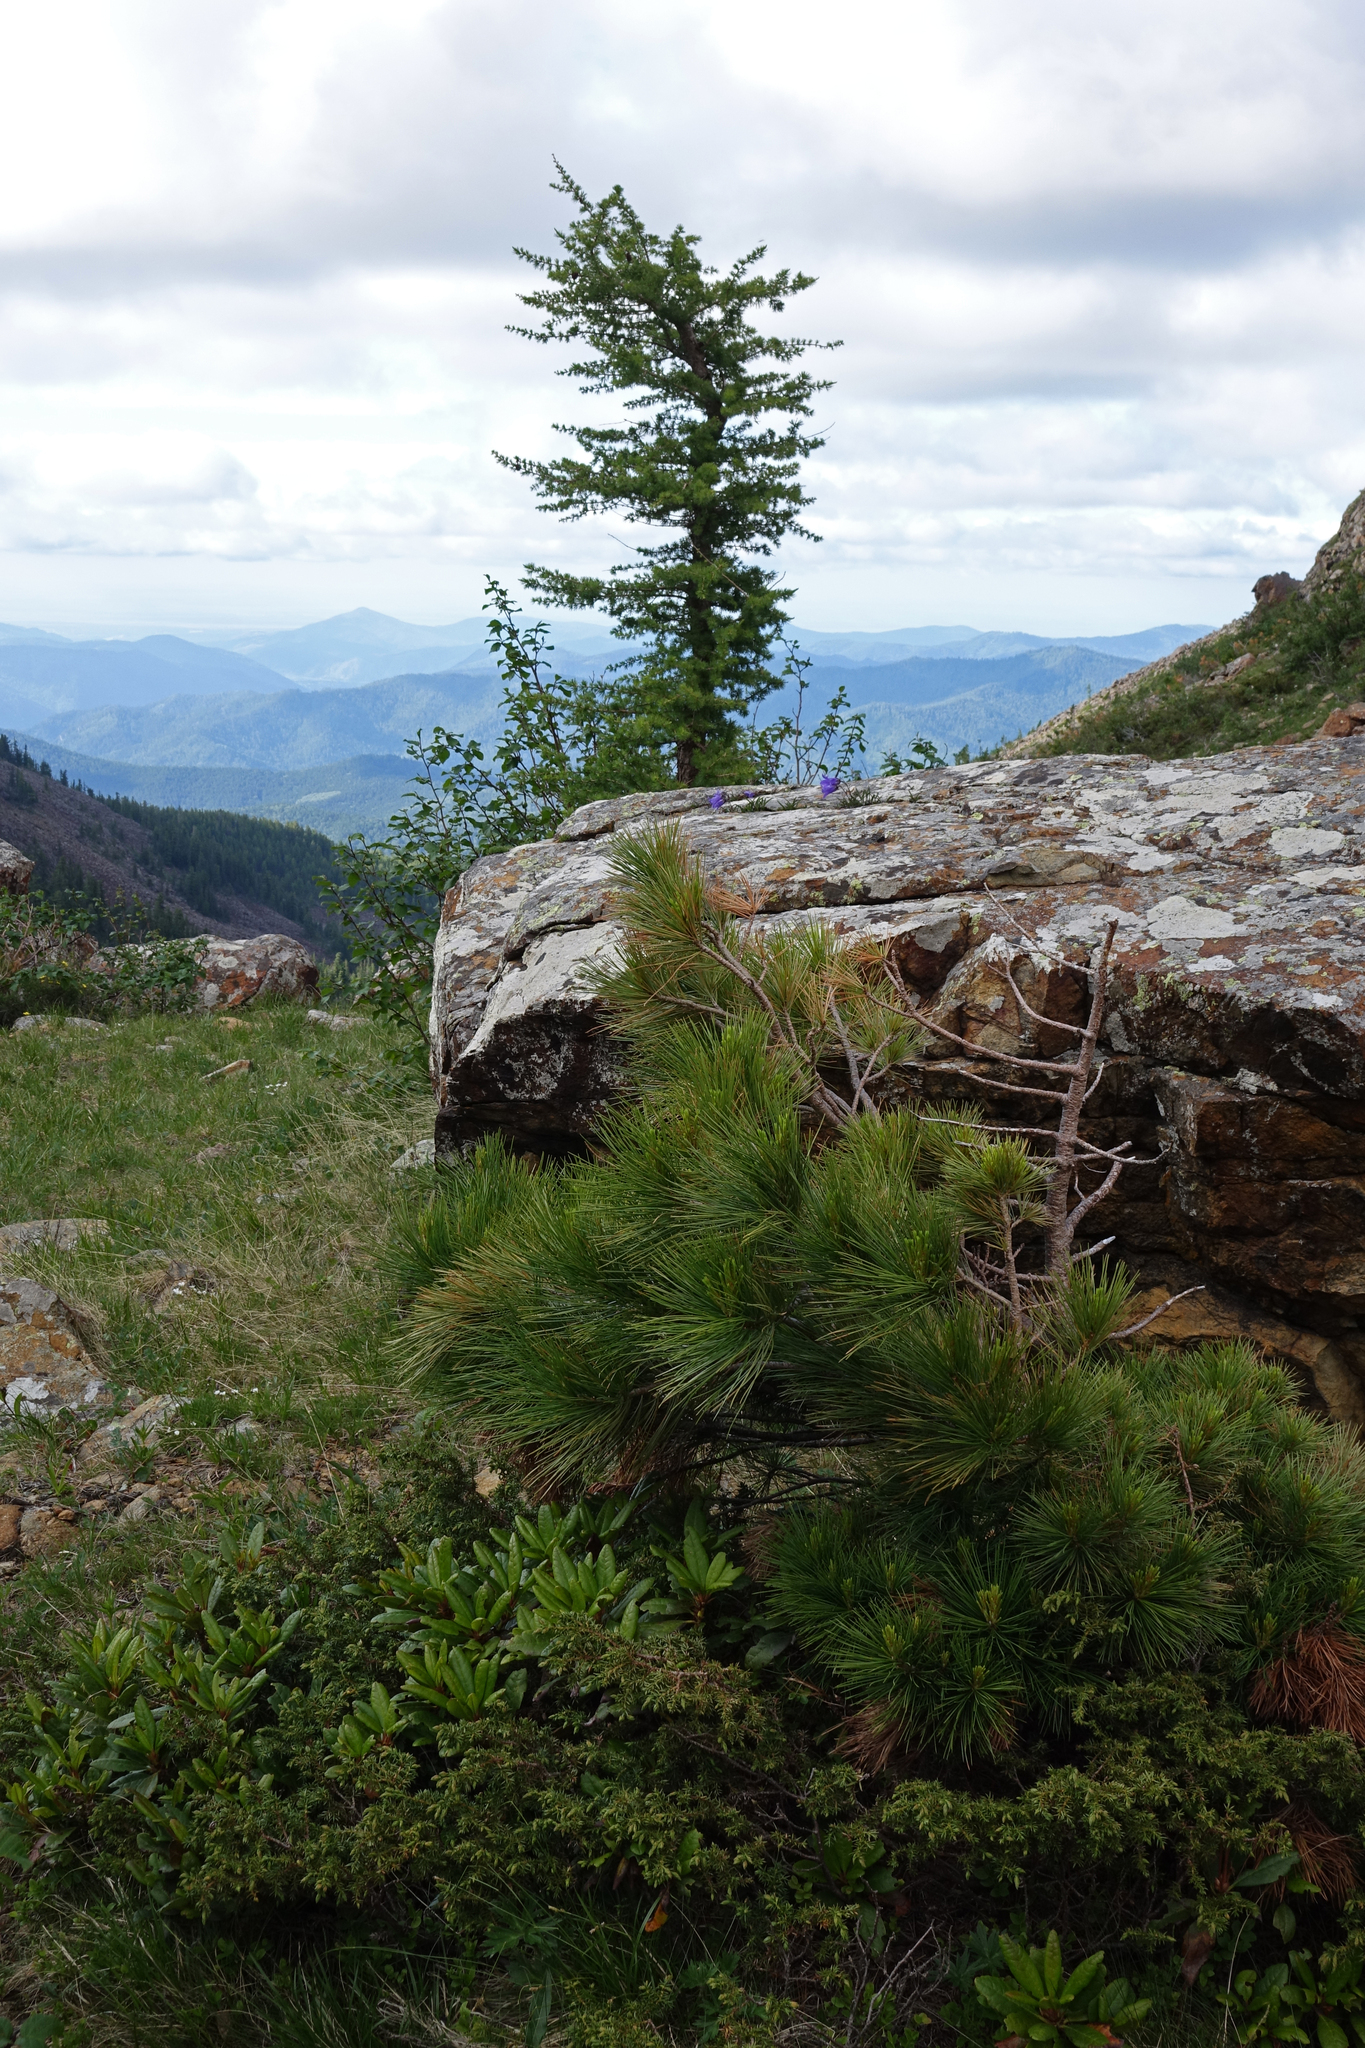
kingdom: Plantae
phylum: Tracheophyta
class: Pinopsida
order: Pinales
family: Pinaceae
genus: Larix
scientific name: Larix sibirica
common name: Siberian larch
